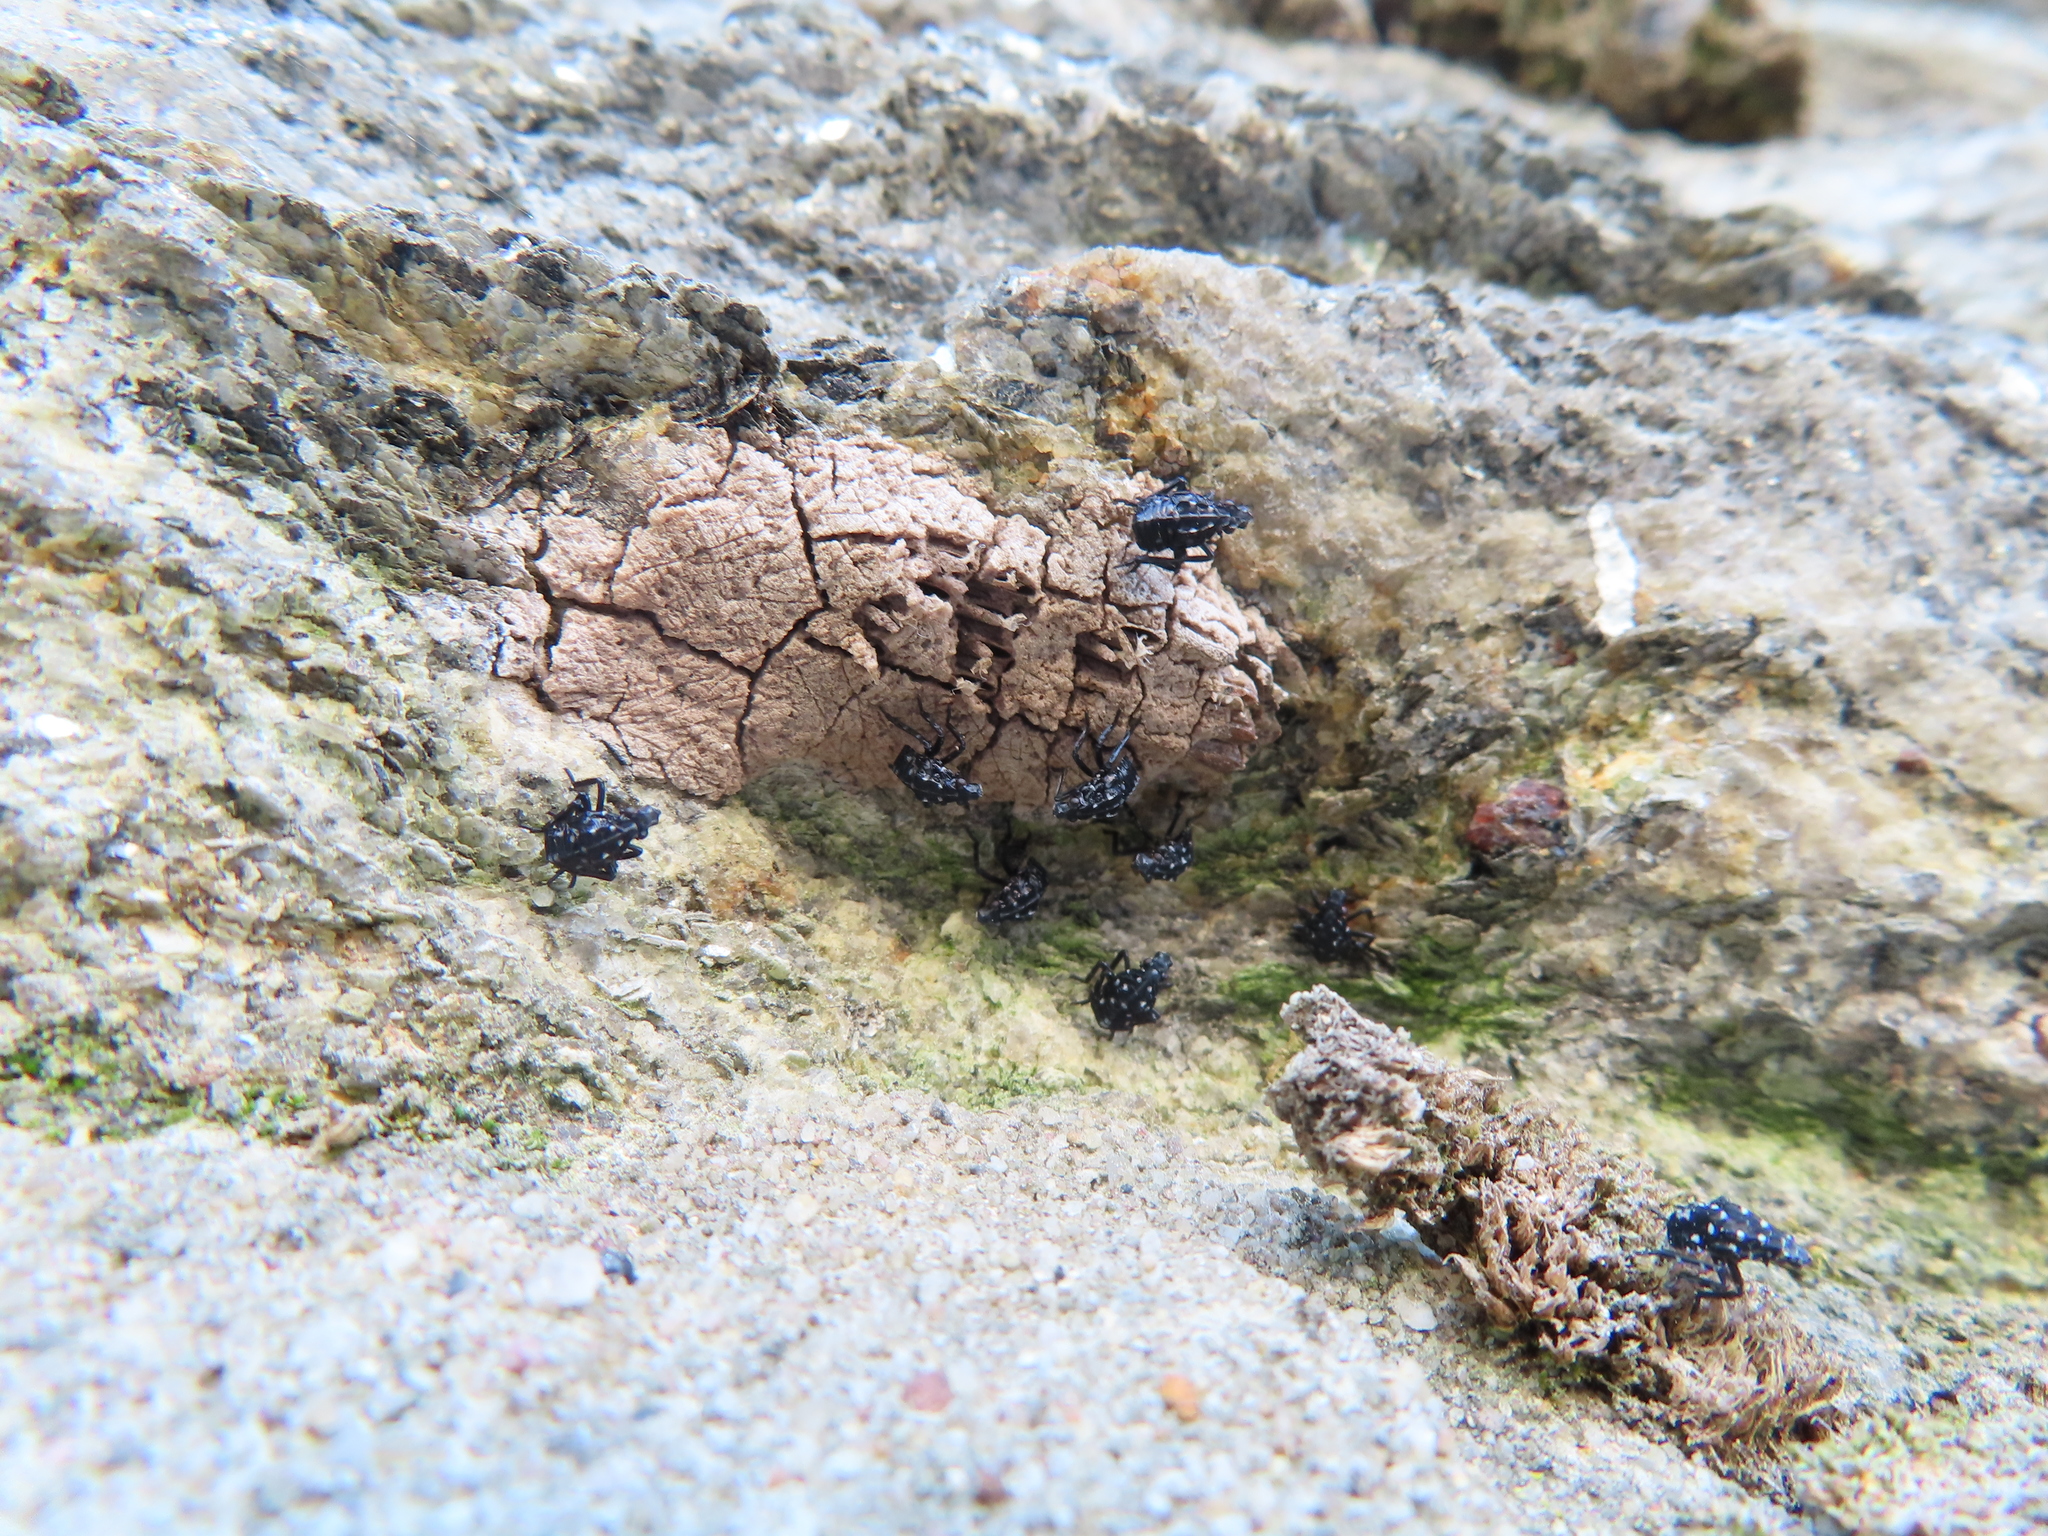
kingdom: Animalia
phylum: Arthropoda
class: Insecta
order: Hemiptera
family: Fulgoridae
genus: Lycorma
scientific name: Lycorma delicatula
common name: Spotted lanternfly
